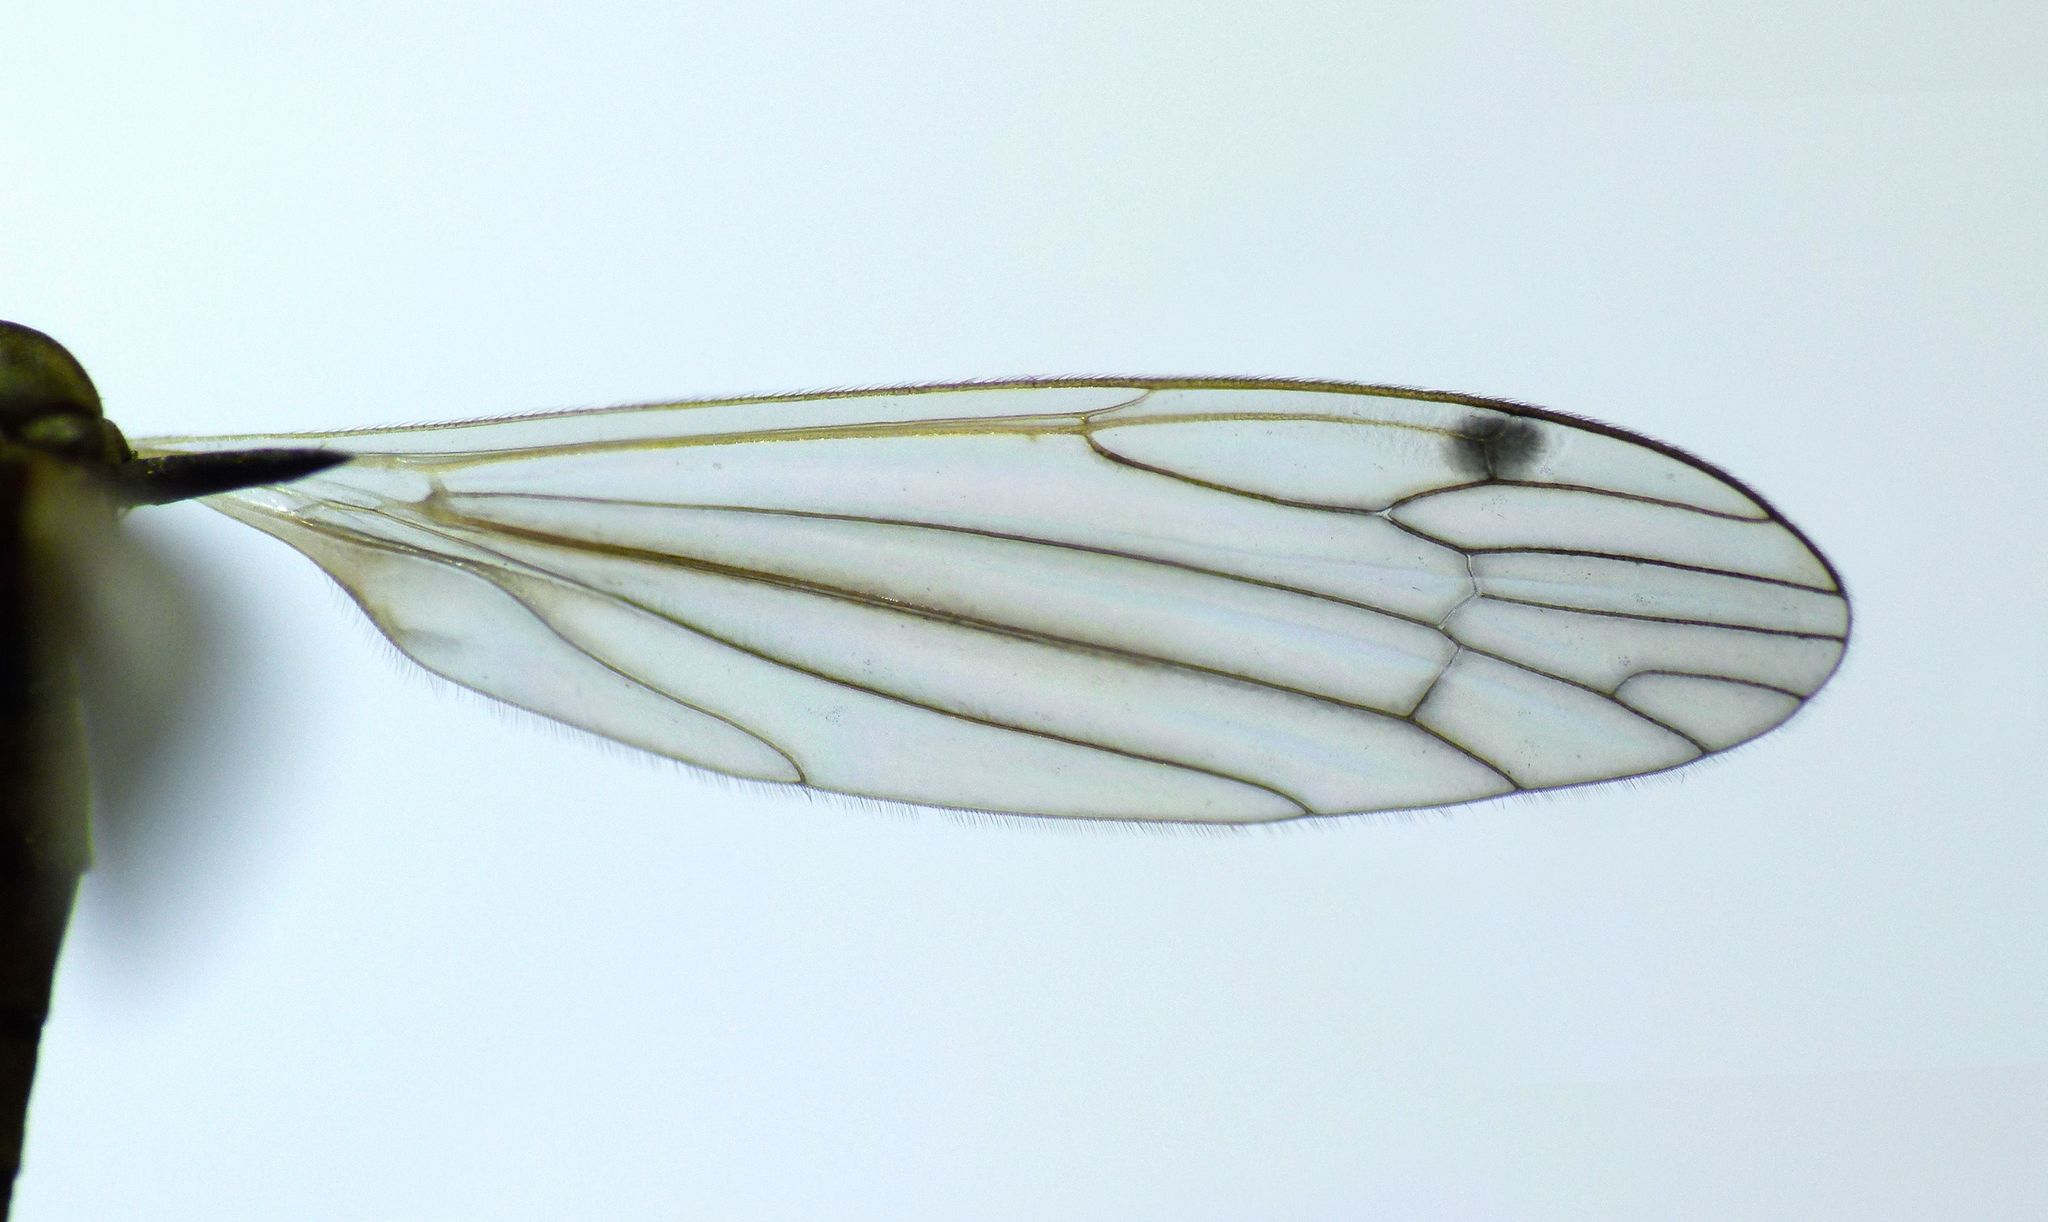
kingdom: Animalia
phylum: Arthropoda
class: Insecta
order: Diptera
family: Limoniidae
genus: Dicranomyia
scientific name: Dicranomyia aegrotans
